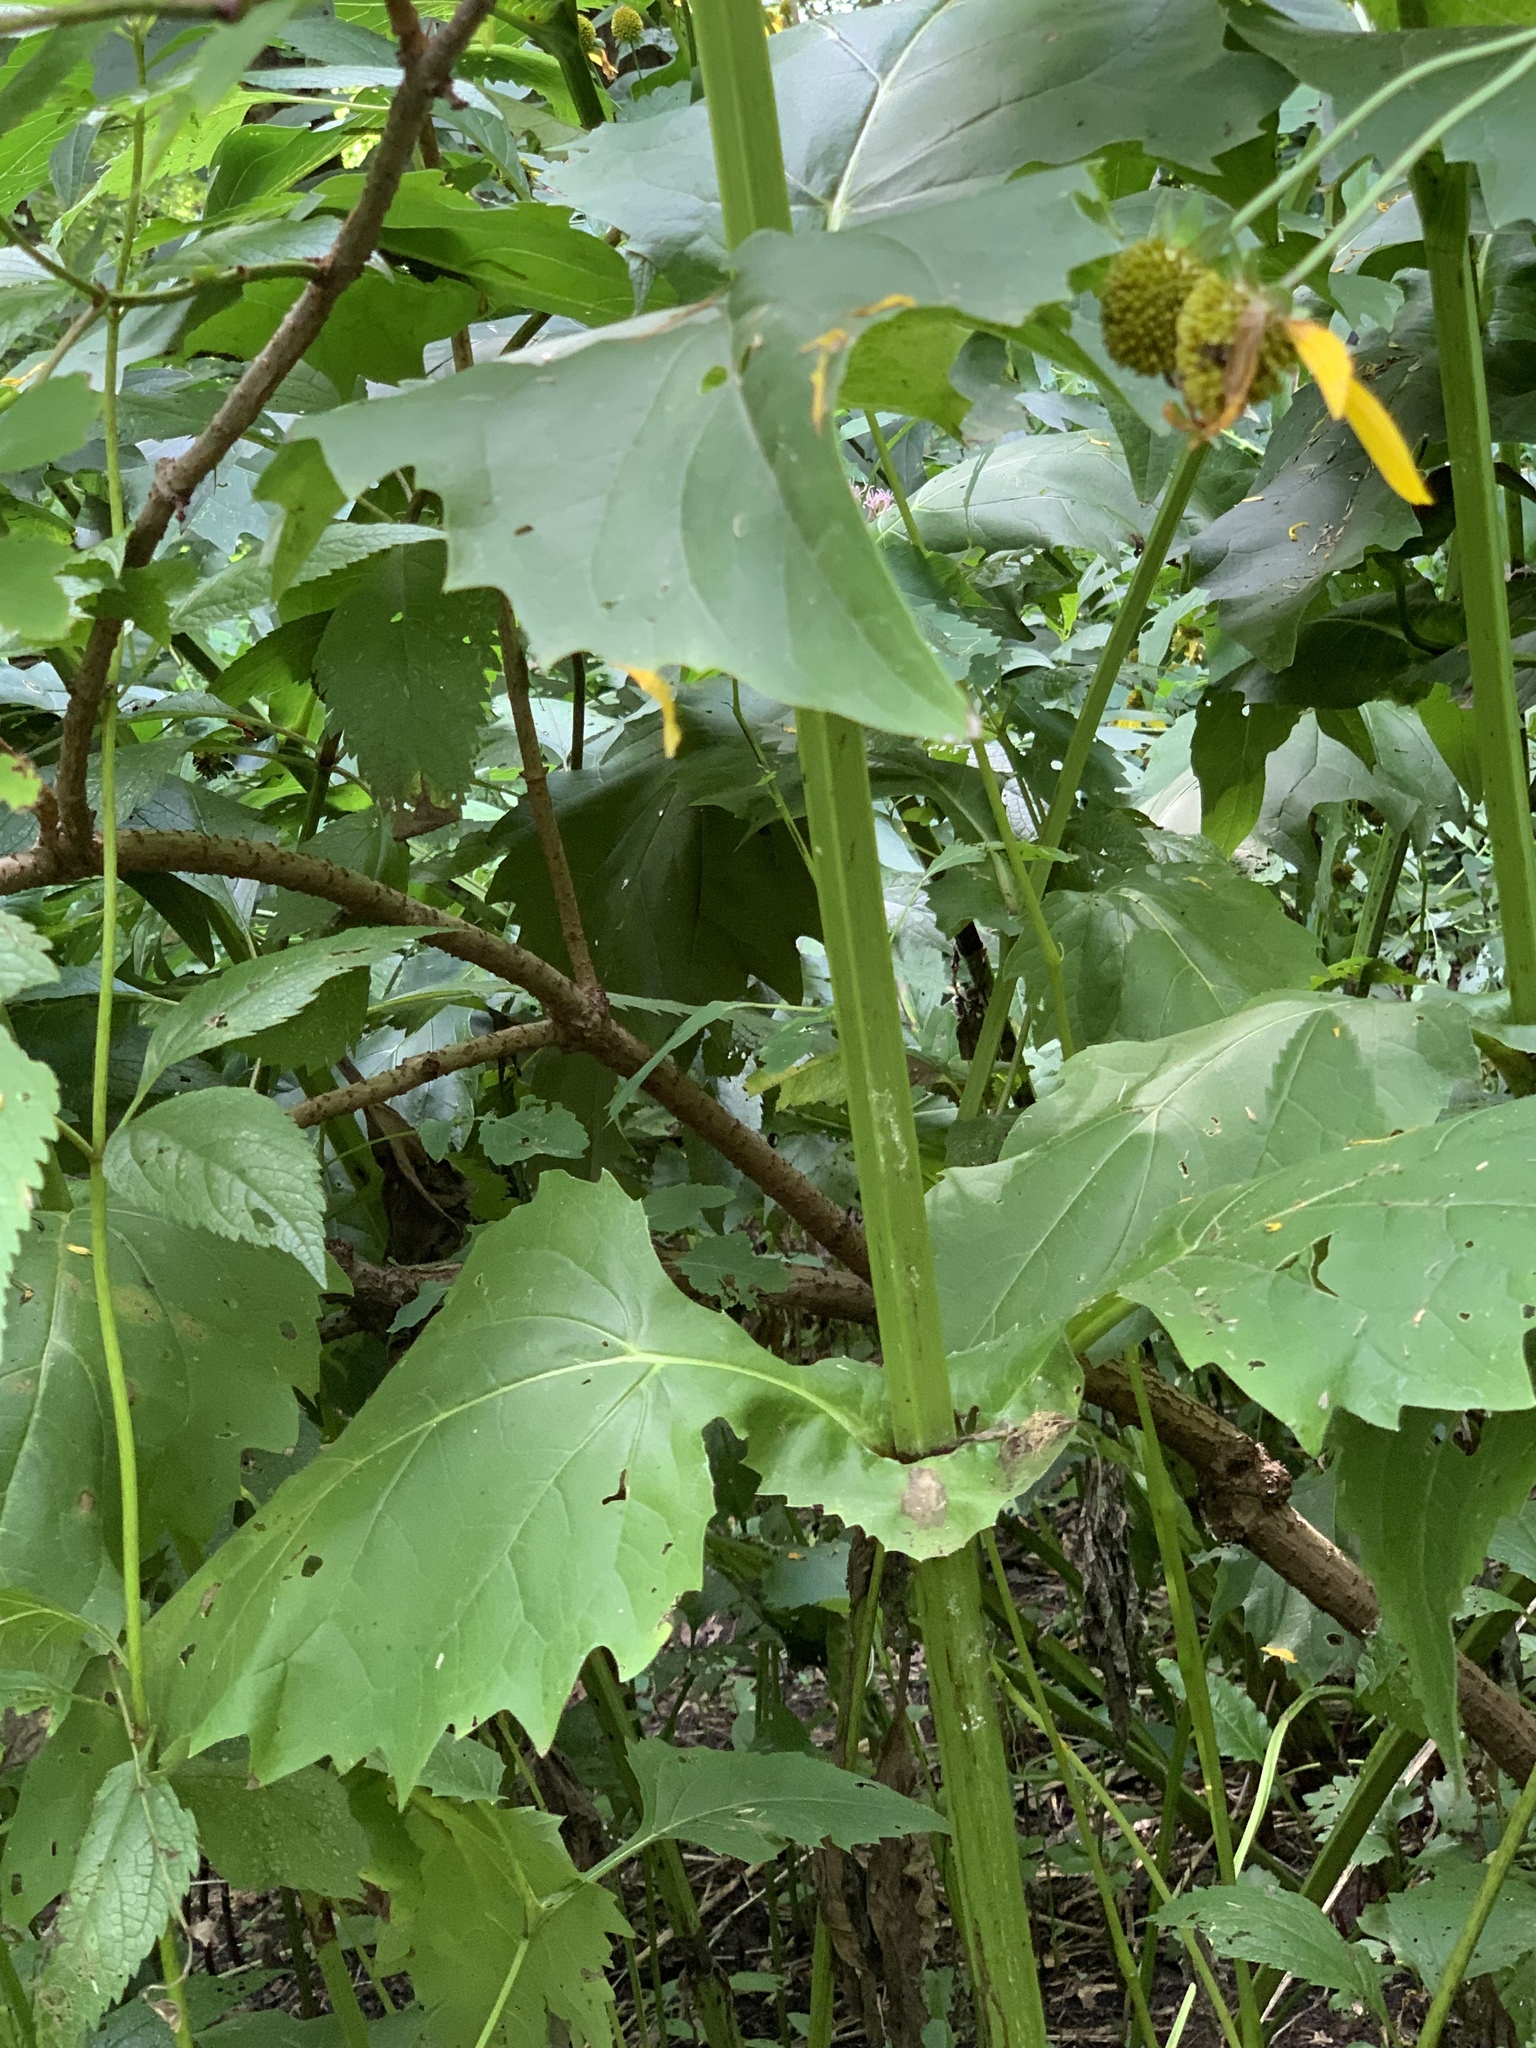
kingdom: Plantae
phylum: Tracheophyta
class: Magnoliopsida
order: Asterales
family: Asteraceae
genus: Silphium
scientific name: Silphium perfoliatum
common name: Cup-plant
